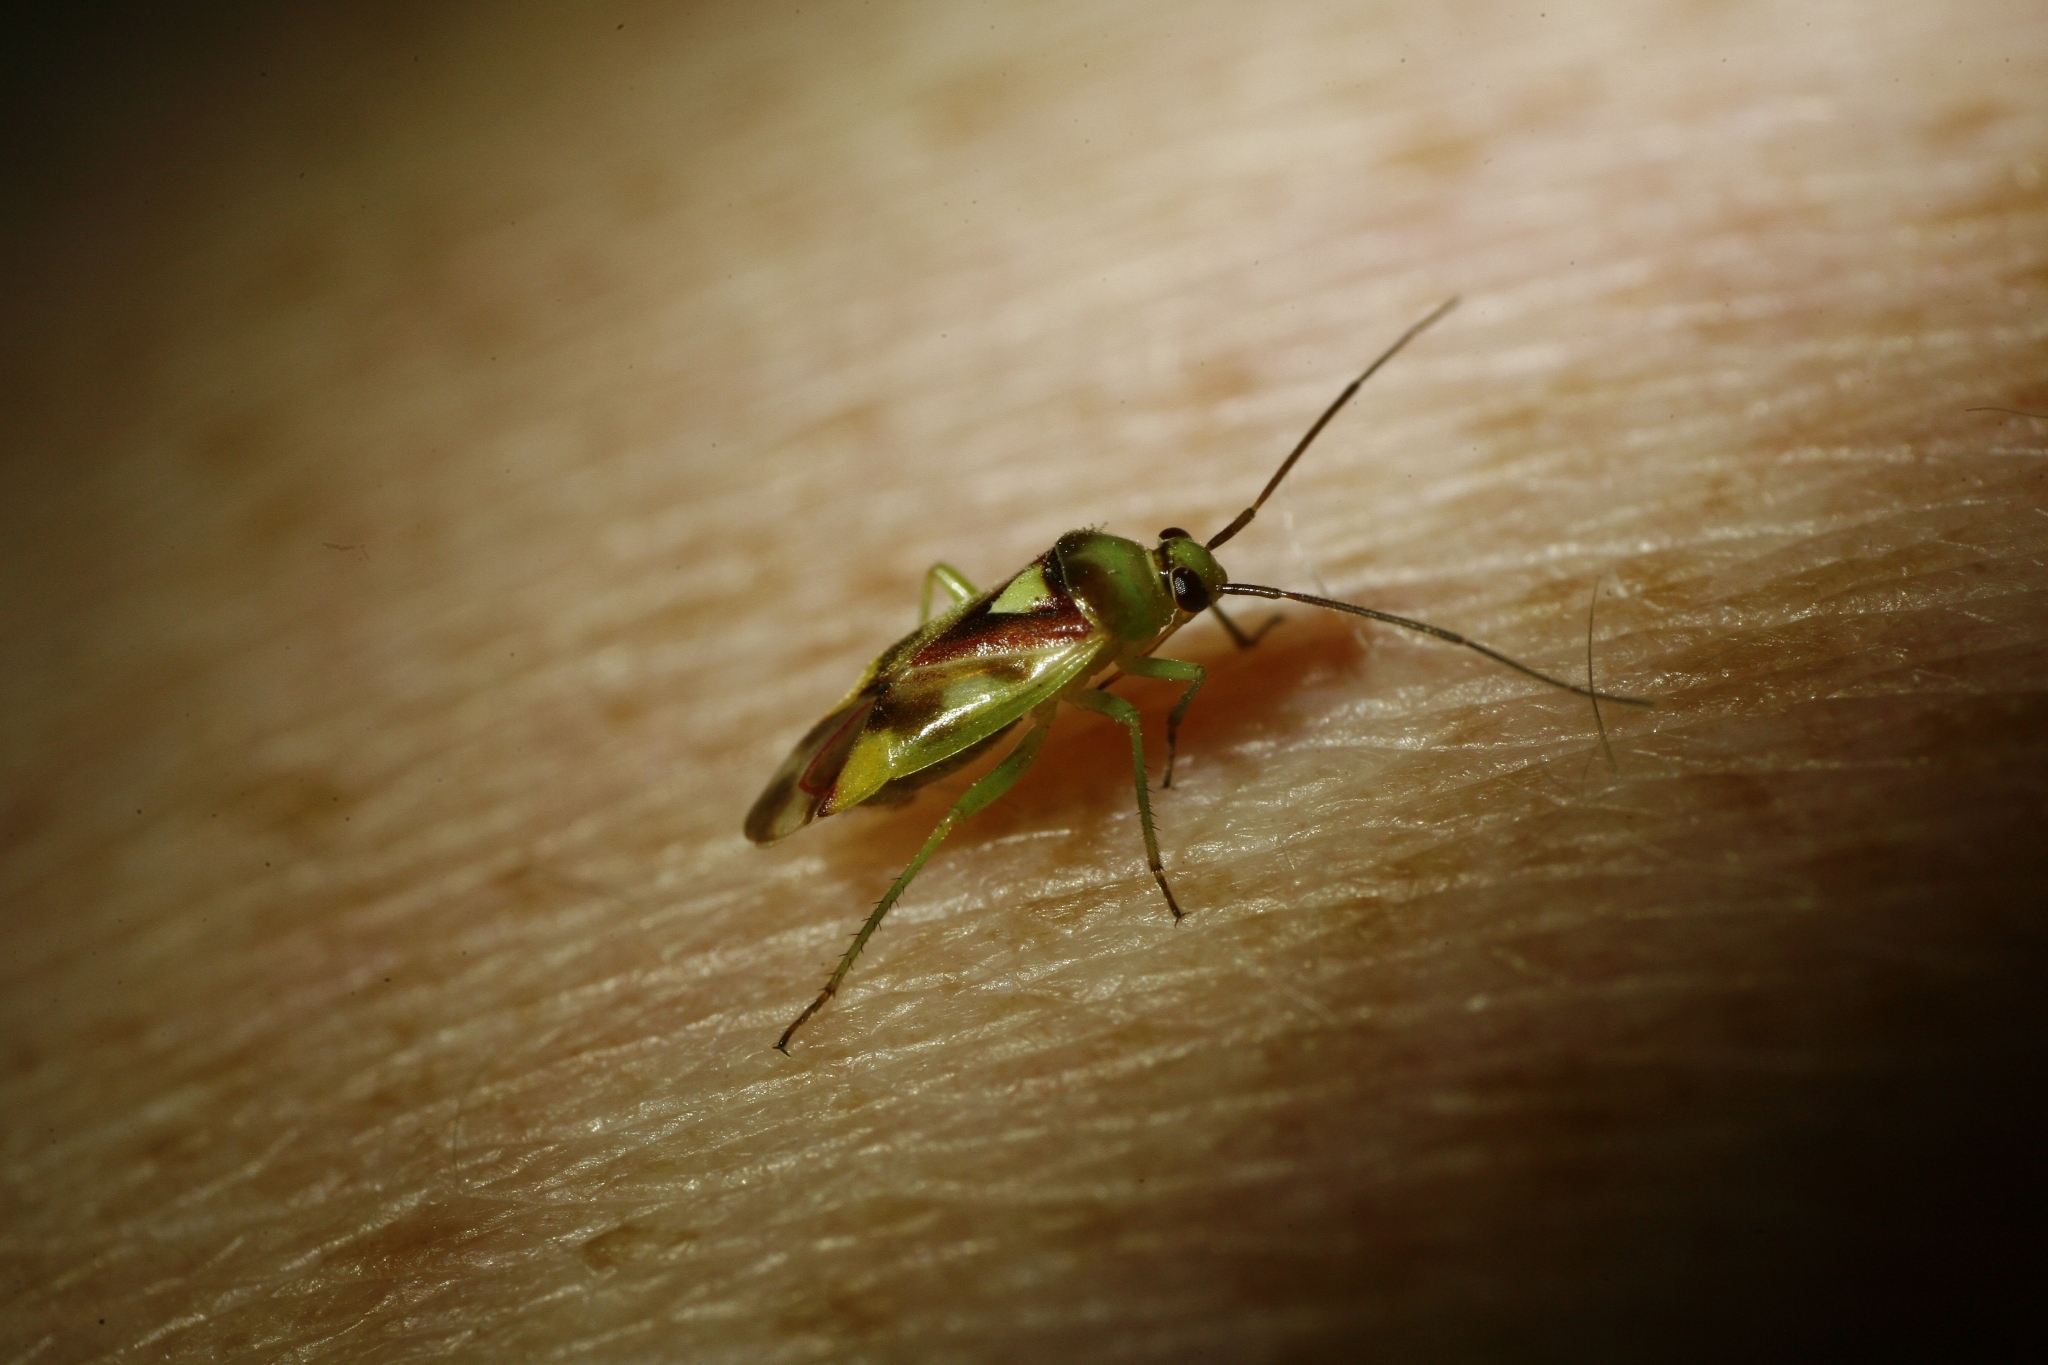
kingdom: Animalia
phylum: Arthropoda
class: Insecta
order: Hemiptera
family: Miridae
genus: Tuicoris
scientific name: Tuicoris excelsus
